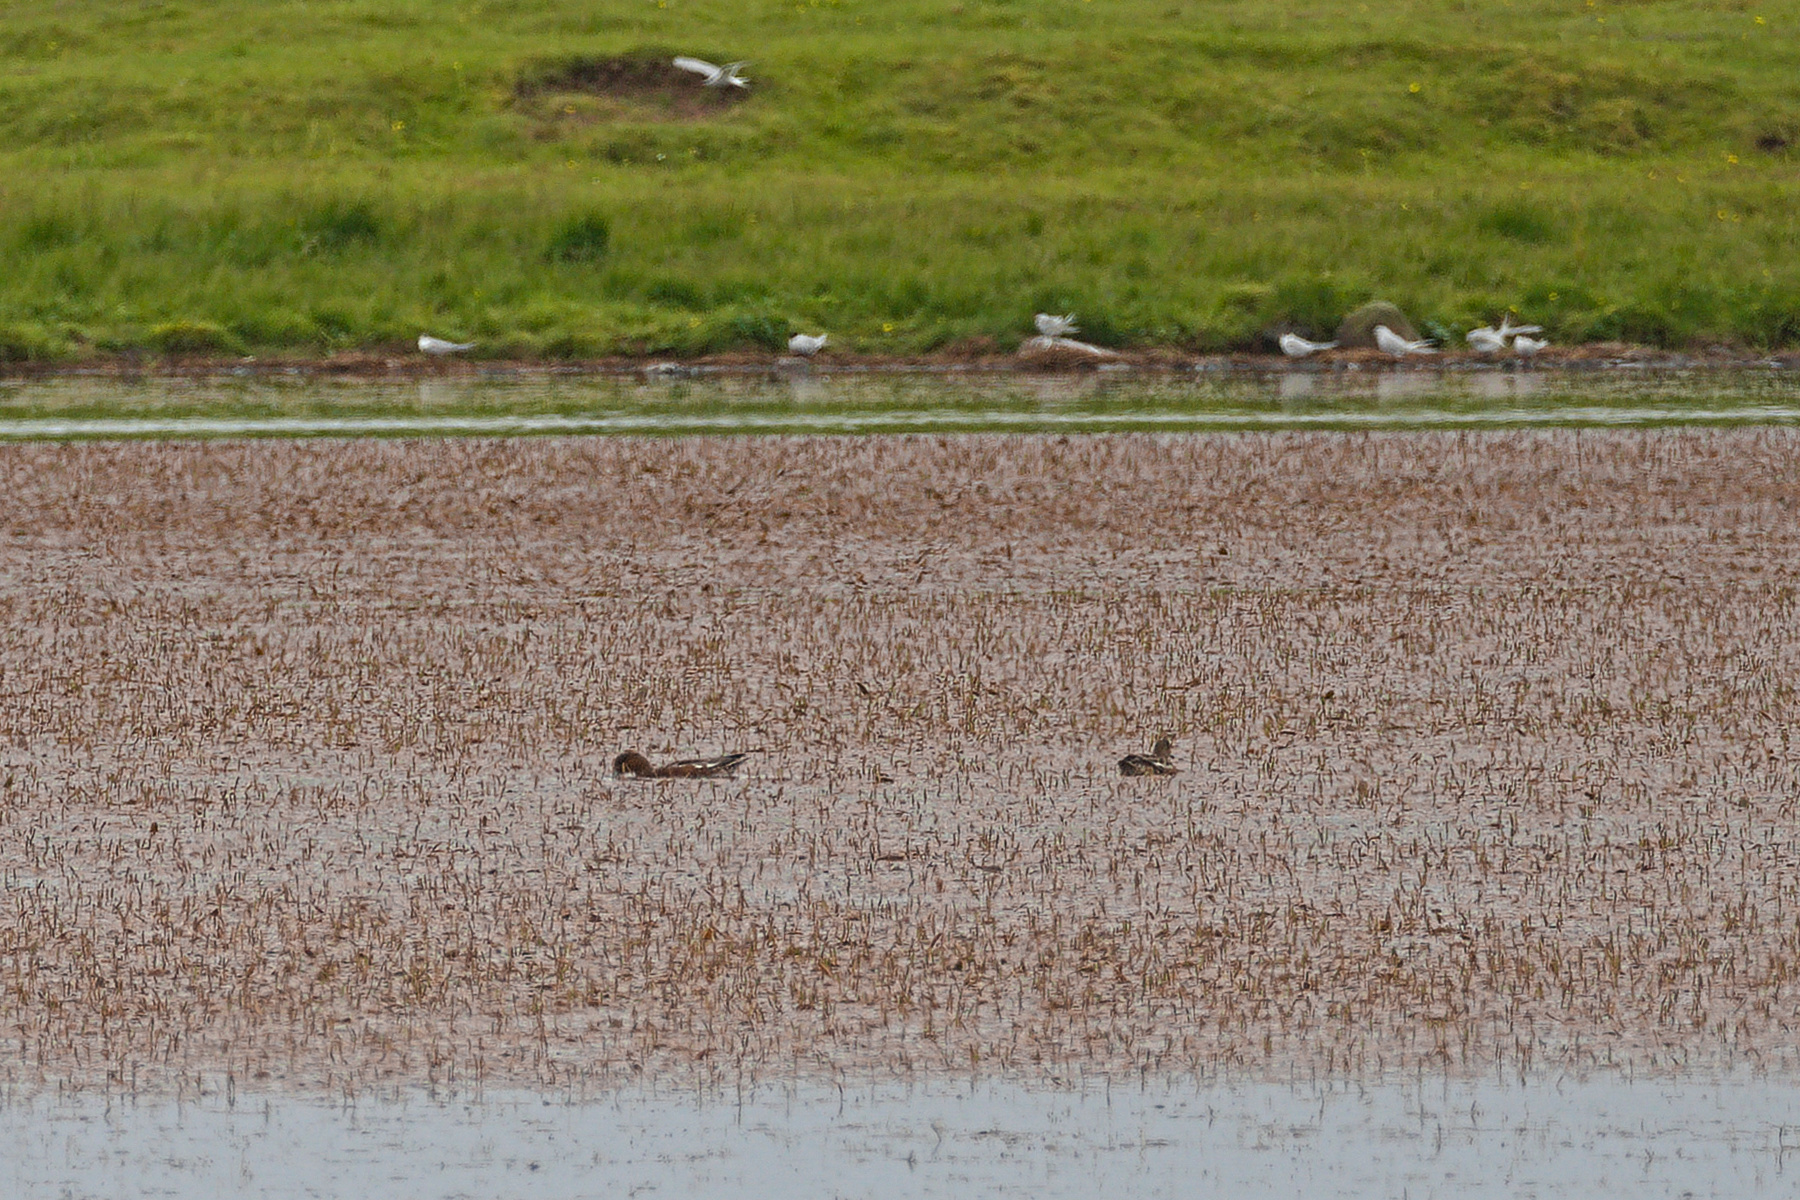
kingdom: Animalia
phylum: Chordata
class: Aves
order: Anseriformes
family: Anatidae
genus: Mareca
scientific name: Mareca penelope
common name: Eurasian wigeon
